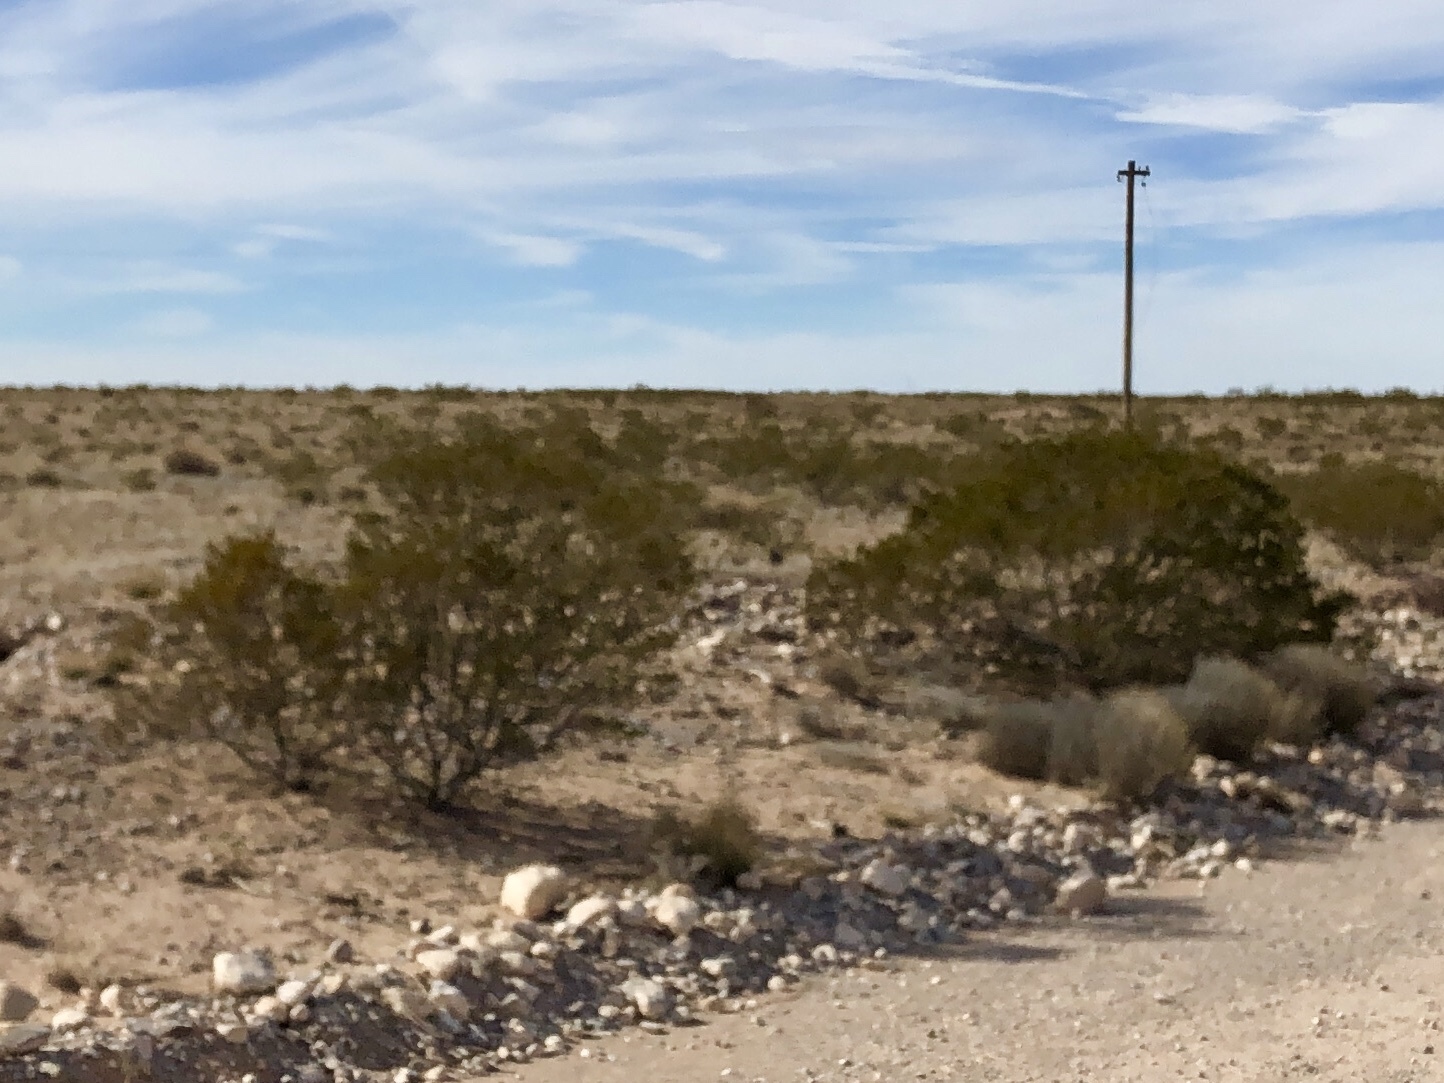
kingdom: Plantae
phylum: Tracheophyta
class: Magnoliopsida
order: Zygophyllales
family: Zygophyllaceae
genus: Larrea
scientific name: Larrea tridentata
